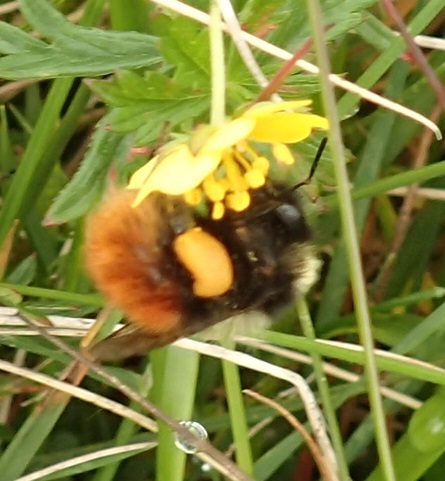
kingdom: Animalia
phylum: Arthropoda
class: Insecta
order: Hymenoptera
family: Apidae
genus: Bombus
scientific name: Bombus monticola
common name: Bilberry humble-bee
